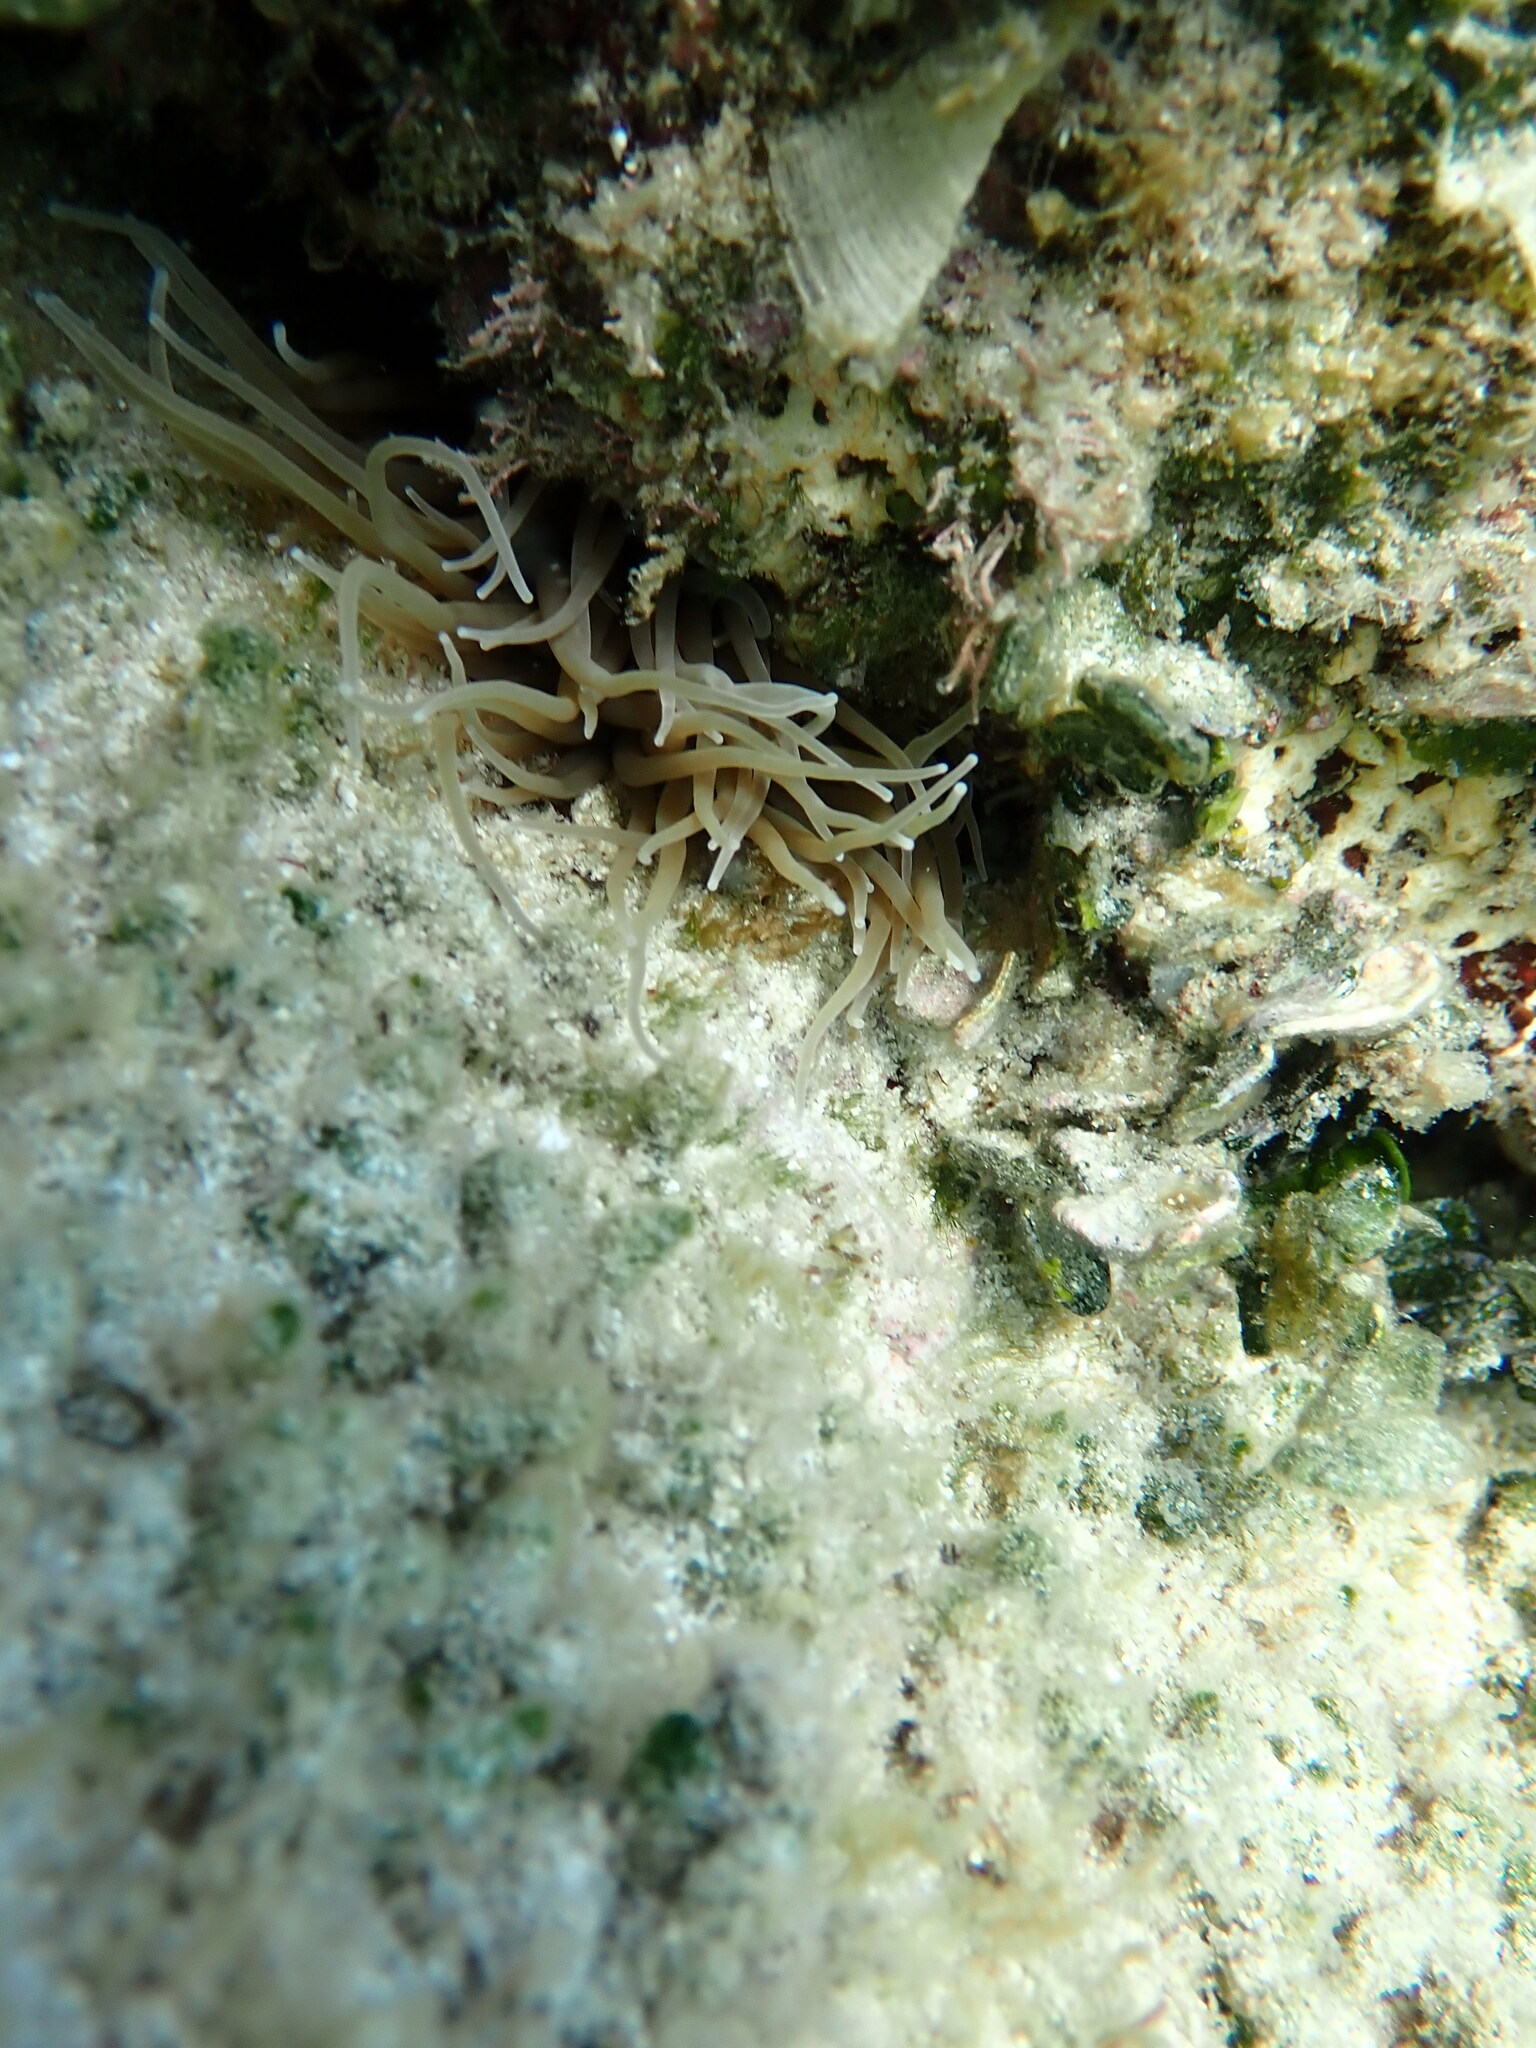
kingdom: Animalia
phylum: Cnidaria
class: Anthozoa
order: Actiniaria
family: Actiniidae
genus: Anemonia
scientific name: Anemonia viridis
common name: Snakelocks anemone
